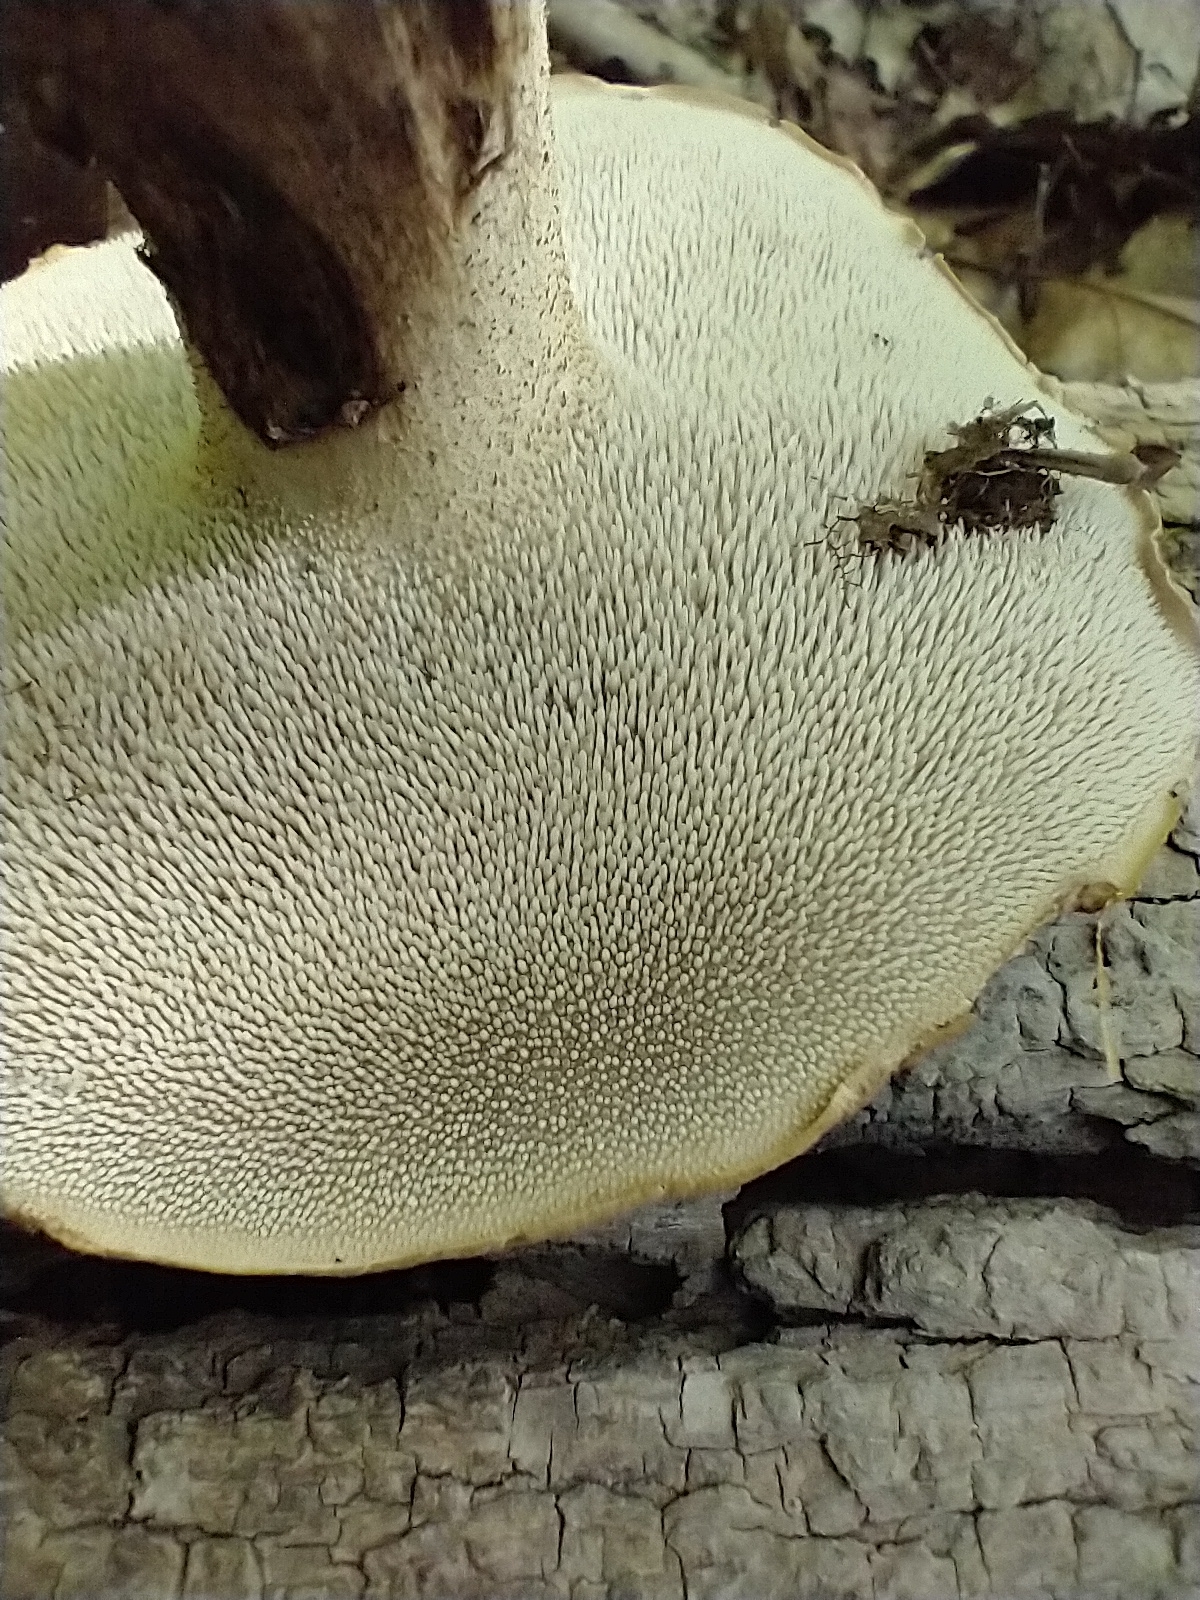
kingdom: Fungi
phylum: Basidiomycota
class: Agaricomycetes
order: Thelephorales
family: Bankeraceae
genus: Sarcodon
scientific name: Sarcodon imbricatus
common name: Shingled hedgehog
